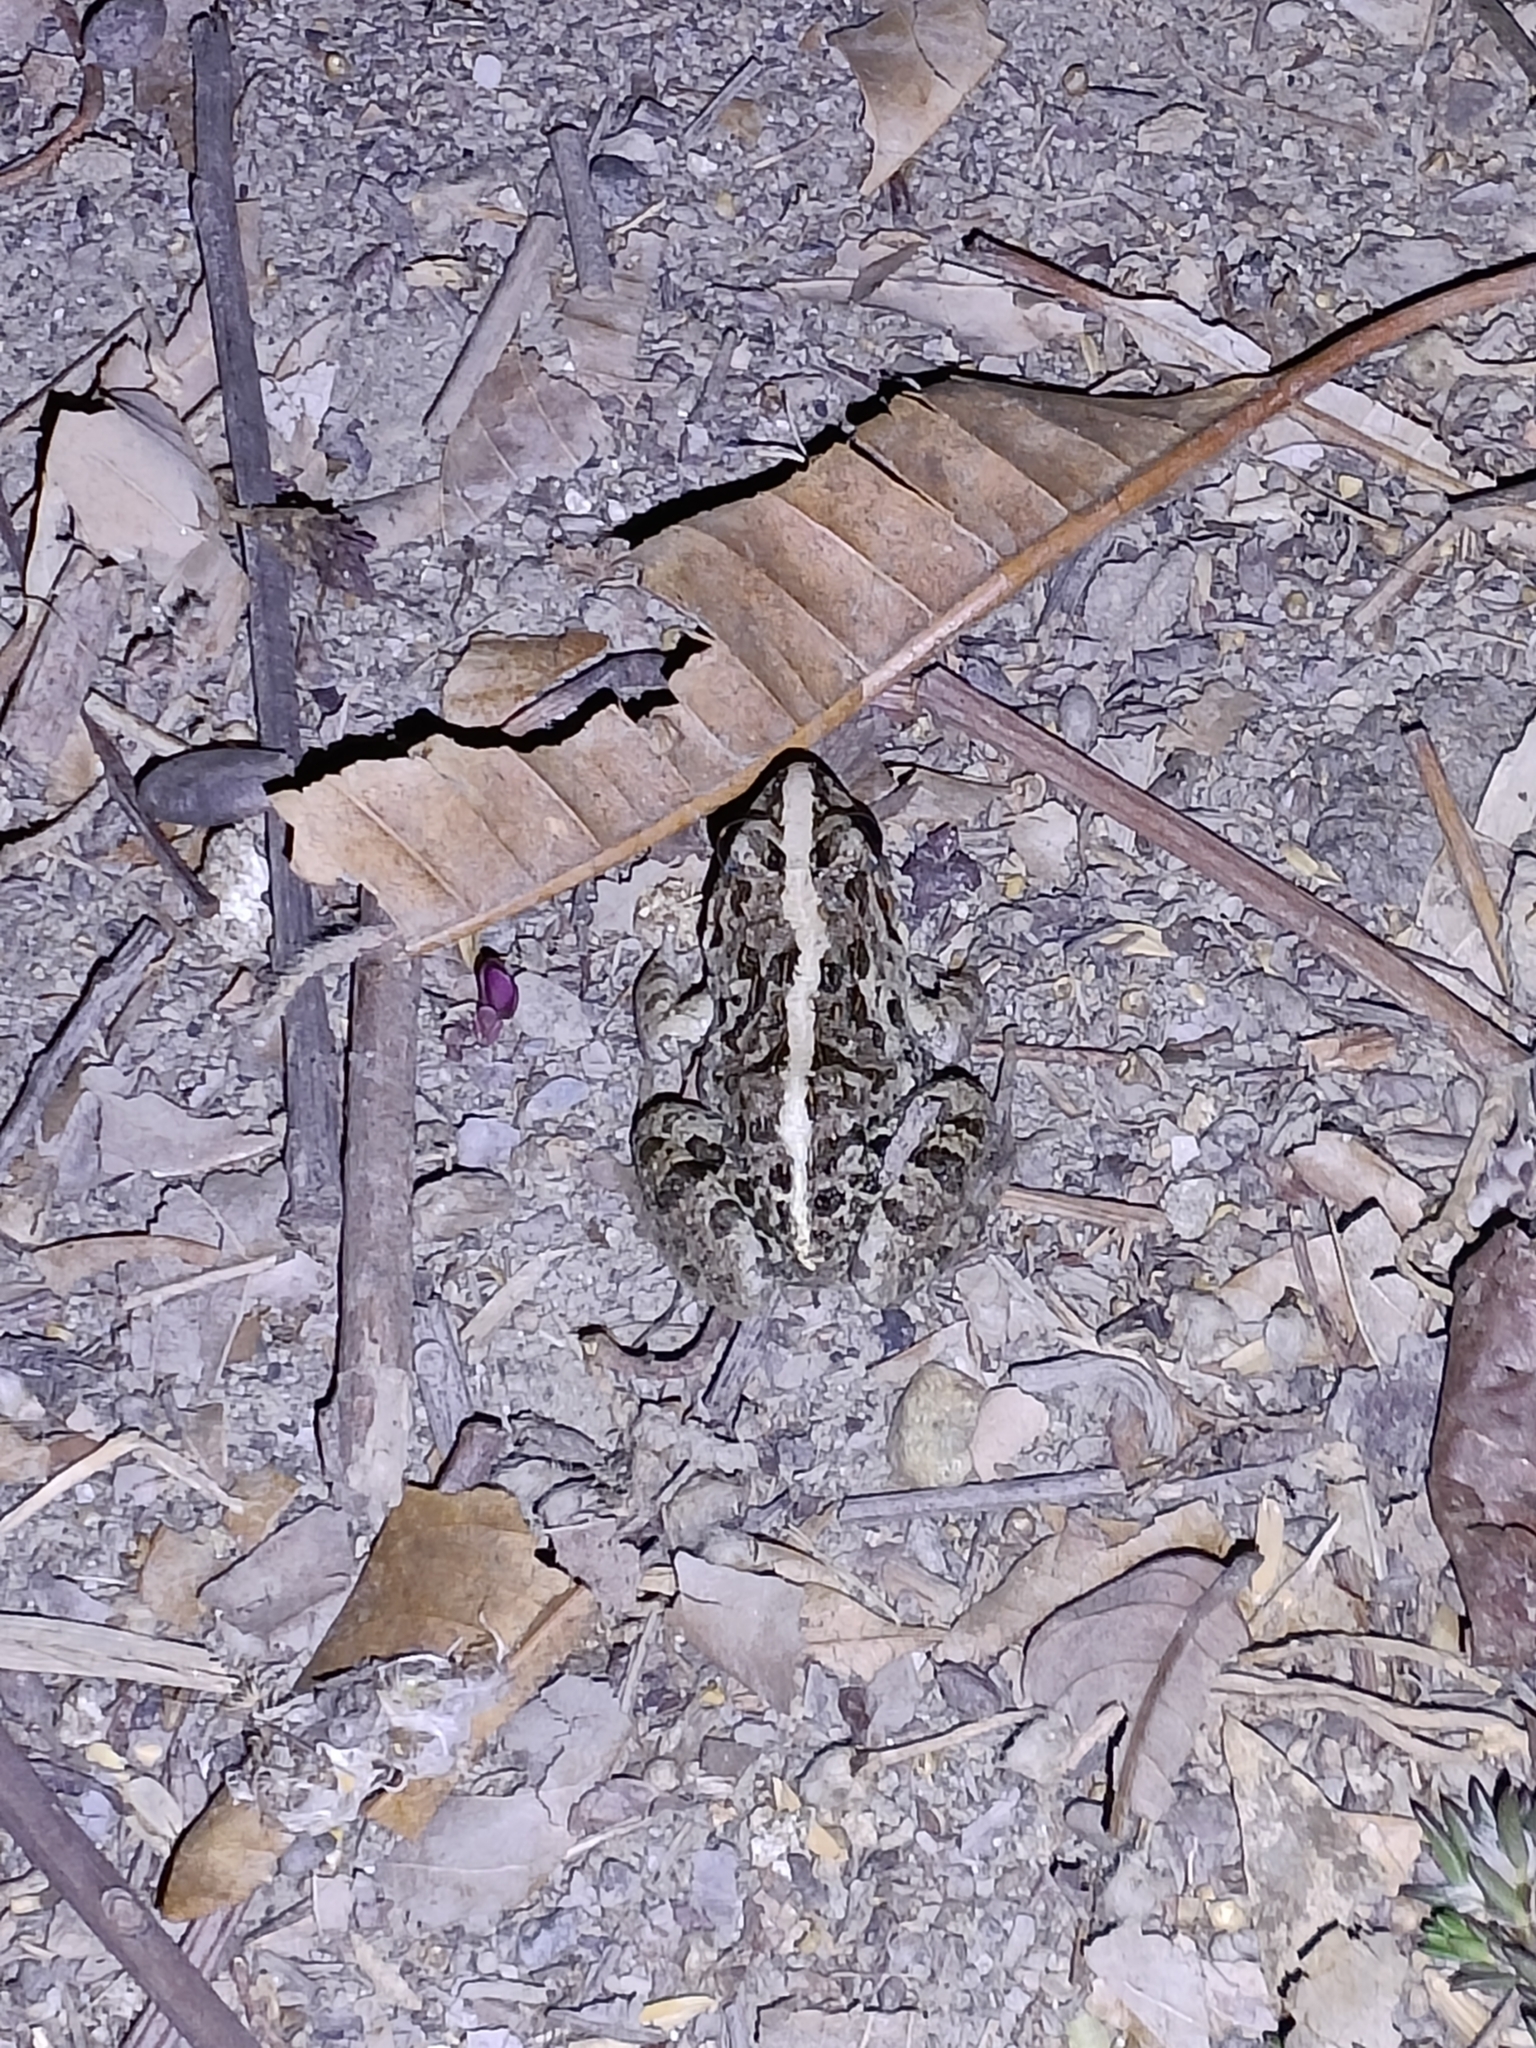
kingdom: Animalia
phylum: Chordata
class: Amphibia
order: Anura
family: Dicroglossidae
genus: Fejervarya
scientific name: Fejervarya limnocharis
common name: Asian grass frog/common pond frog/field frog/grass frog/indian rice frog
